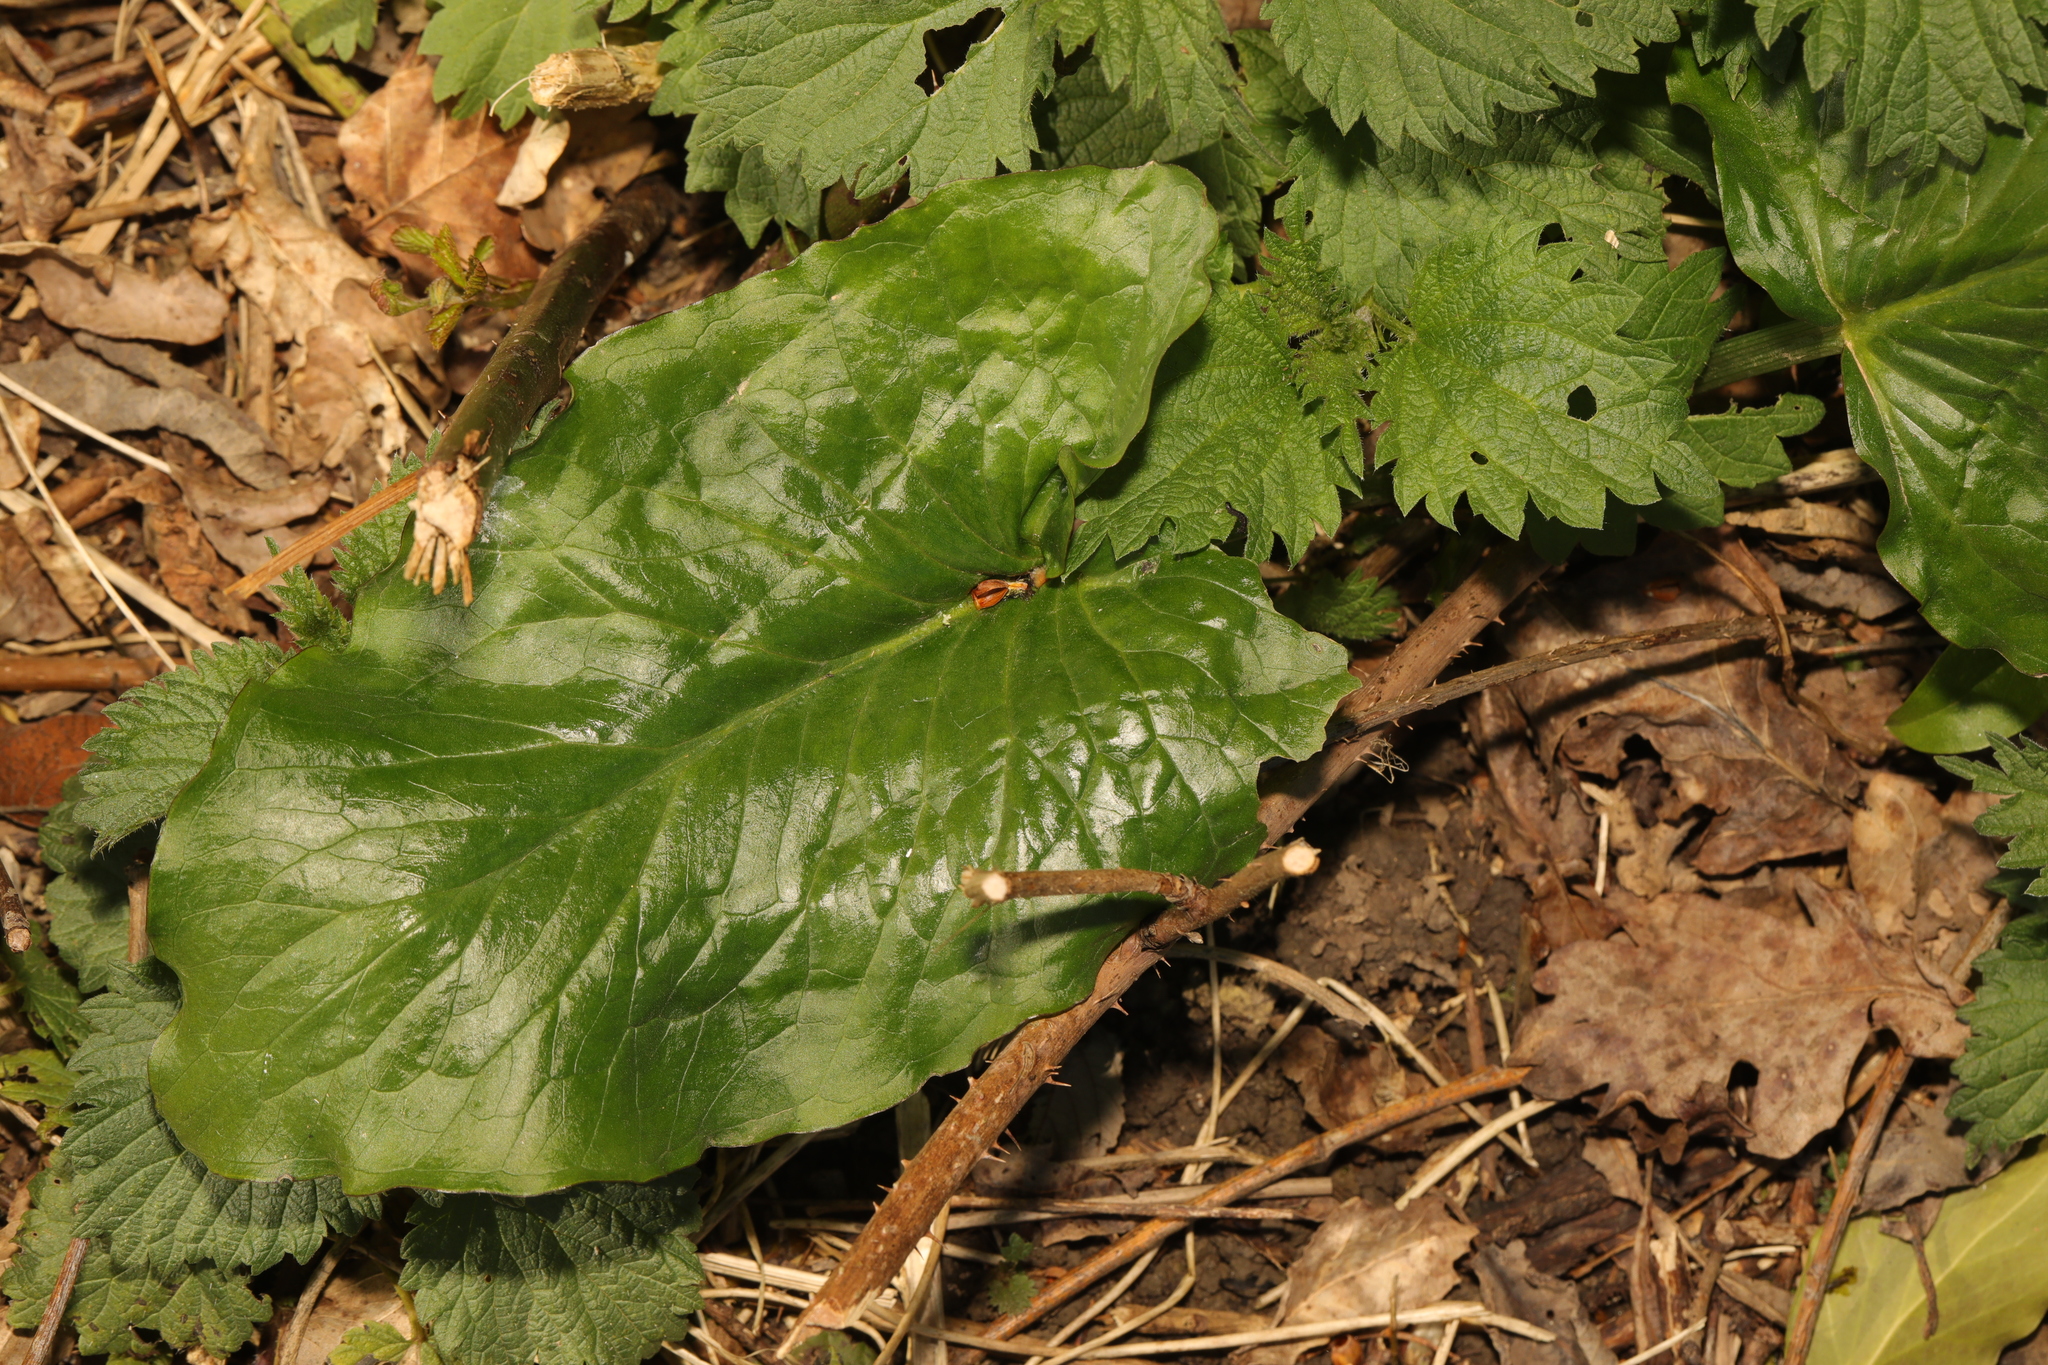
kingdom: Plantae
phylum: Tracheophyta
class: Liliopsida
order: Alismatales
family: Araceae
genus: Arum
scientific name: Arum maculatum
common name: Lords-and-ladies
